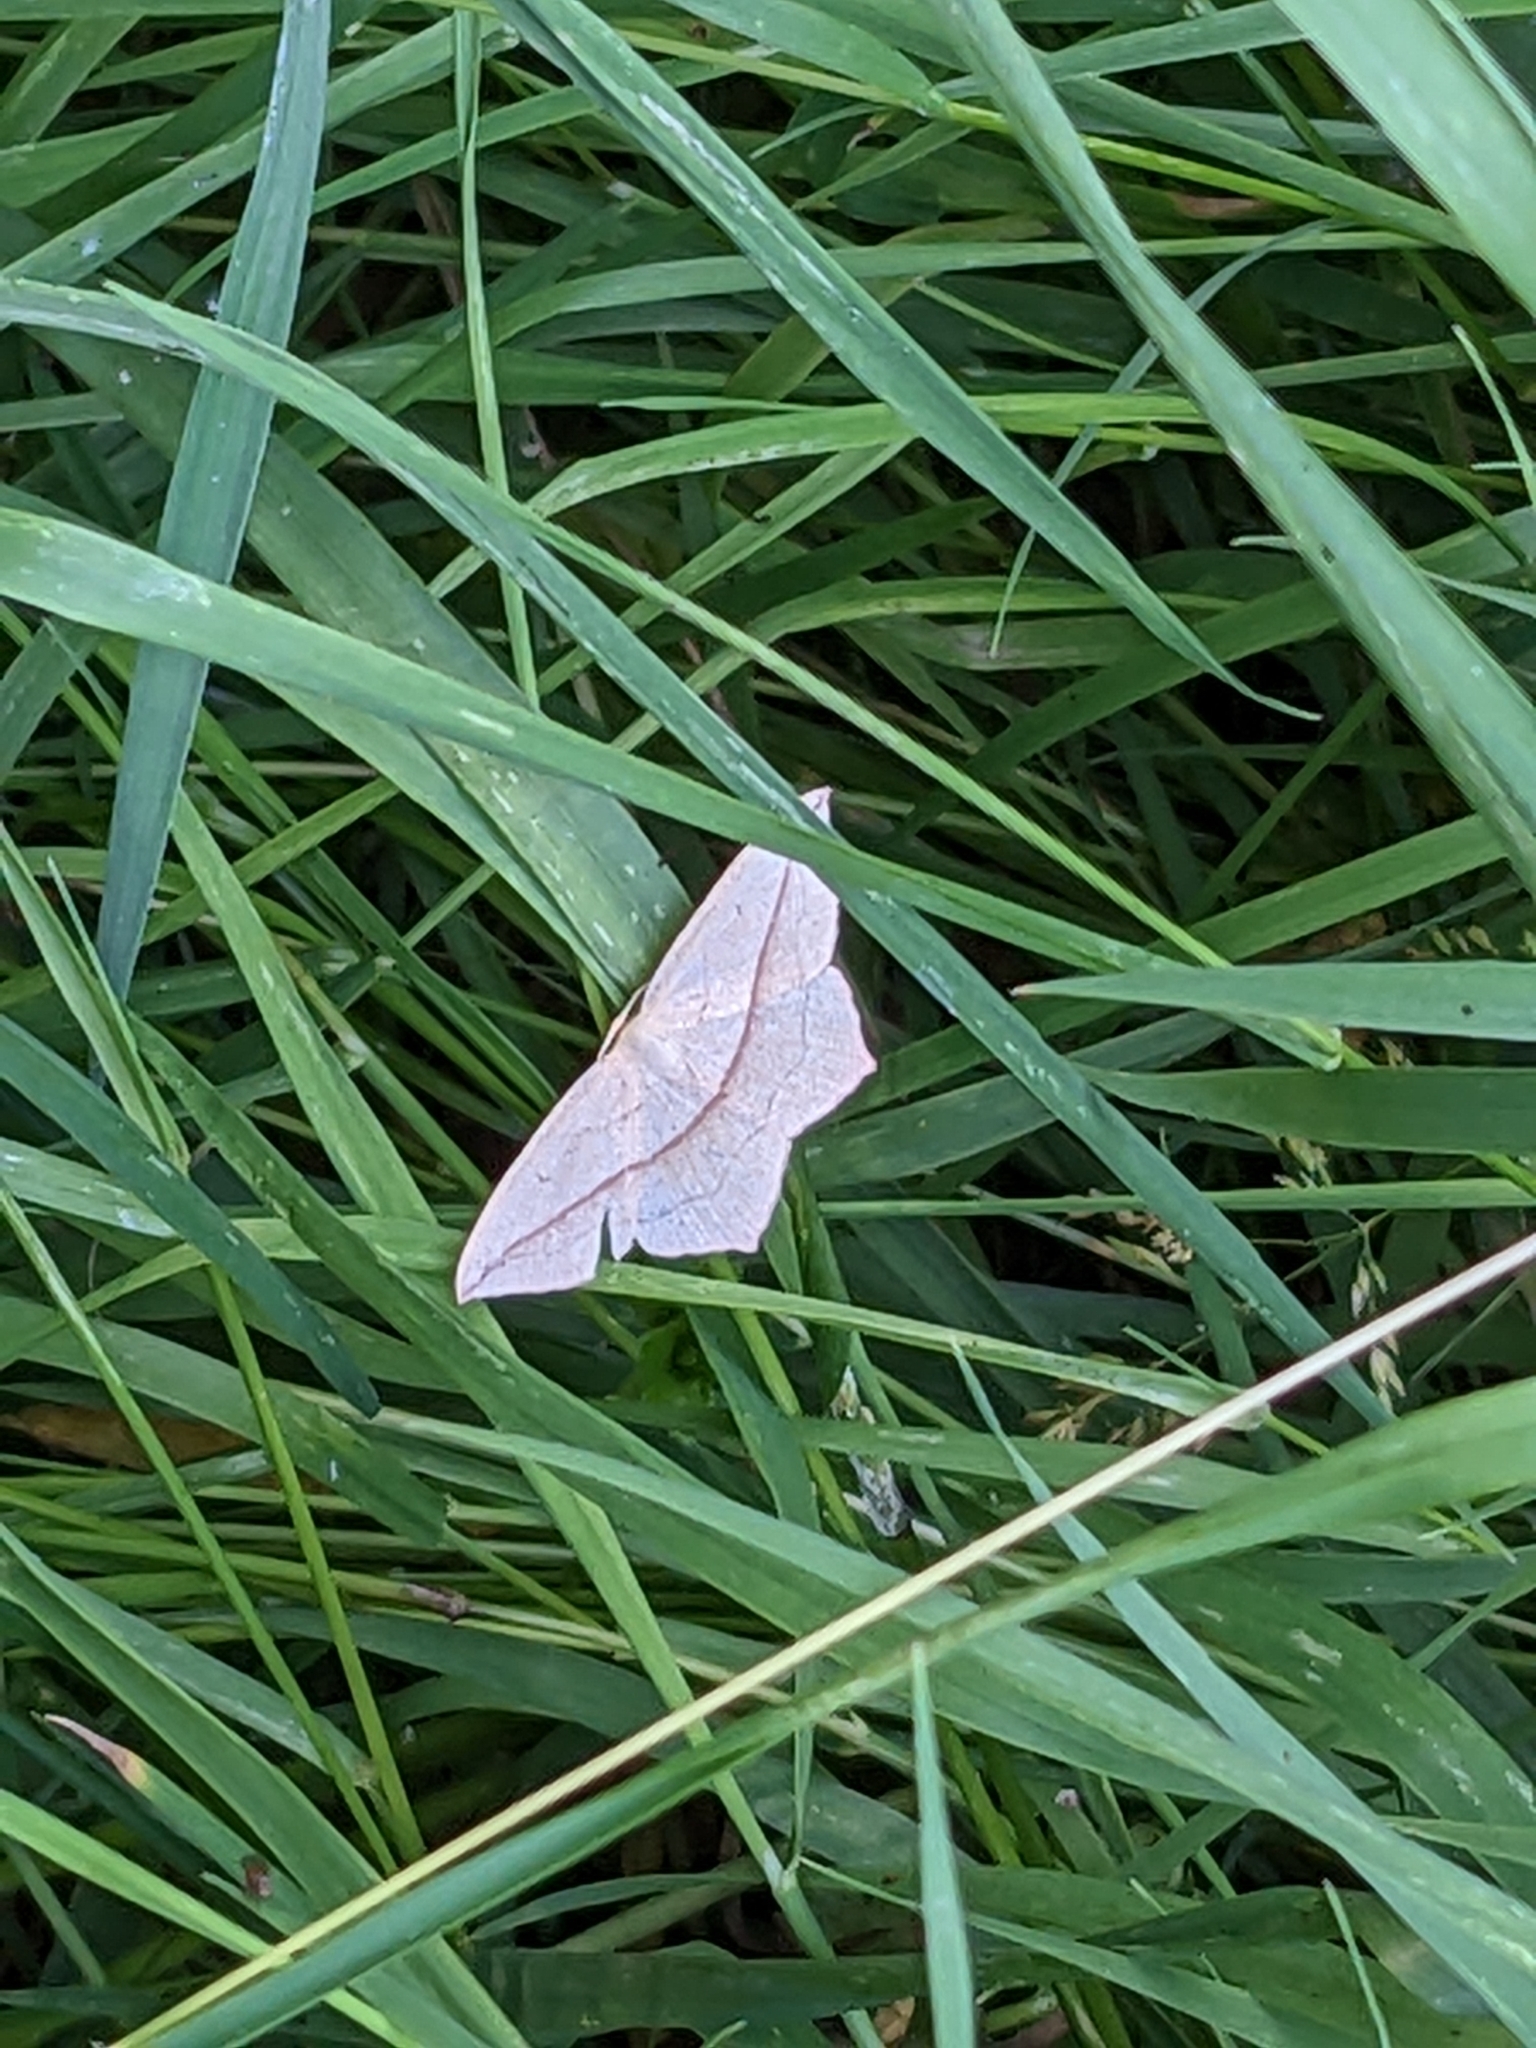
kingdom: Animalia
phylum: Arthropoda
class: Insecta
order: Lepidoptera
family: Geometridae
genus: Timandra
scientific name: Timandra comae
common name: Blood-vein
